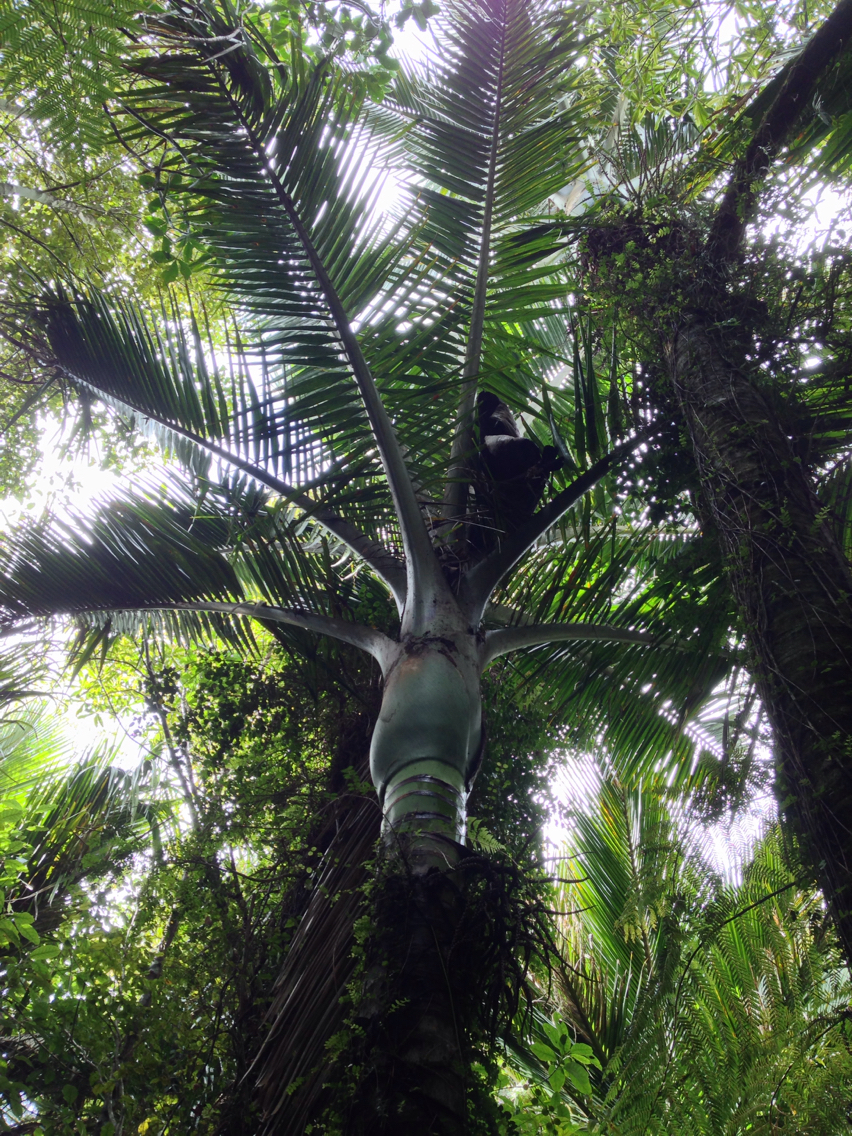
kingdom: Plantae
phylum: Tracheophyta
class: Liliopsida
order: Arecales
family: Arecaceae
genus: Rhopalostylis
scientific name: Rhopalostylis sapida
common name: Feather-duster palm
